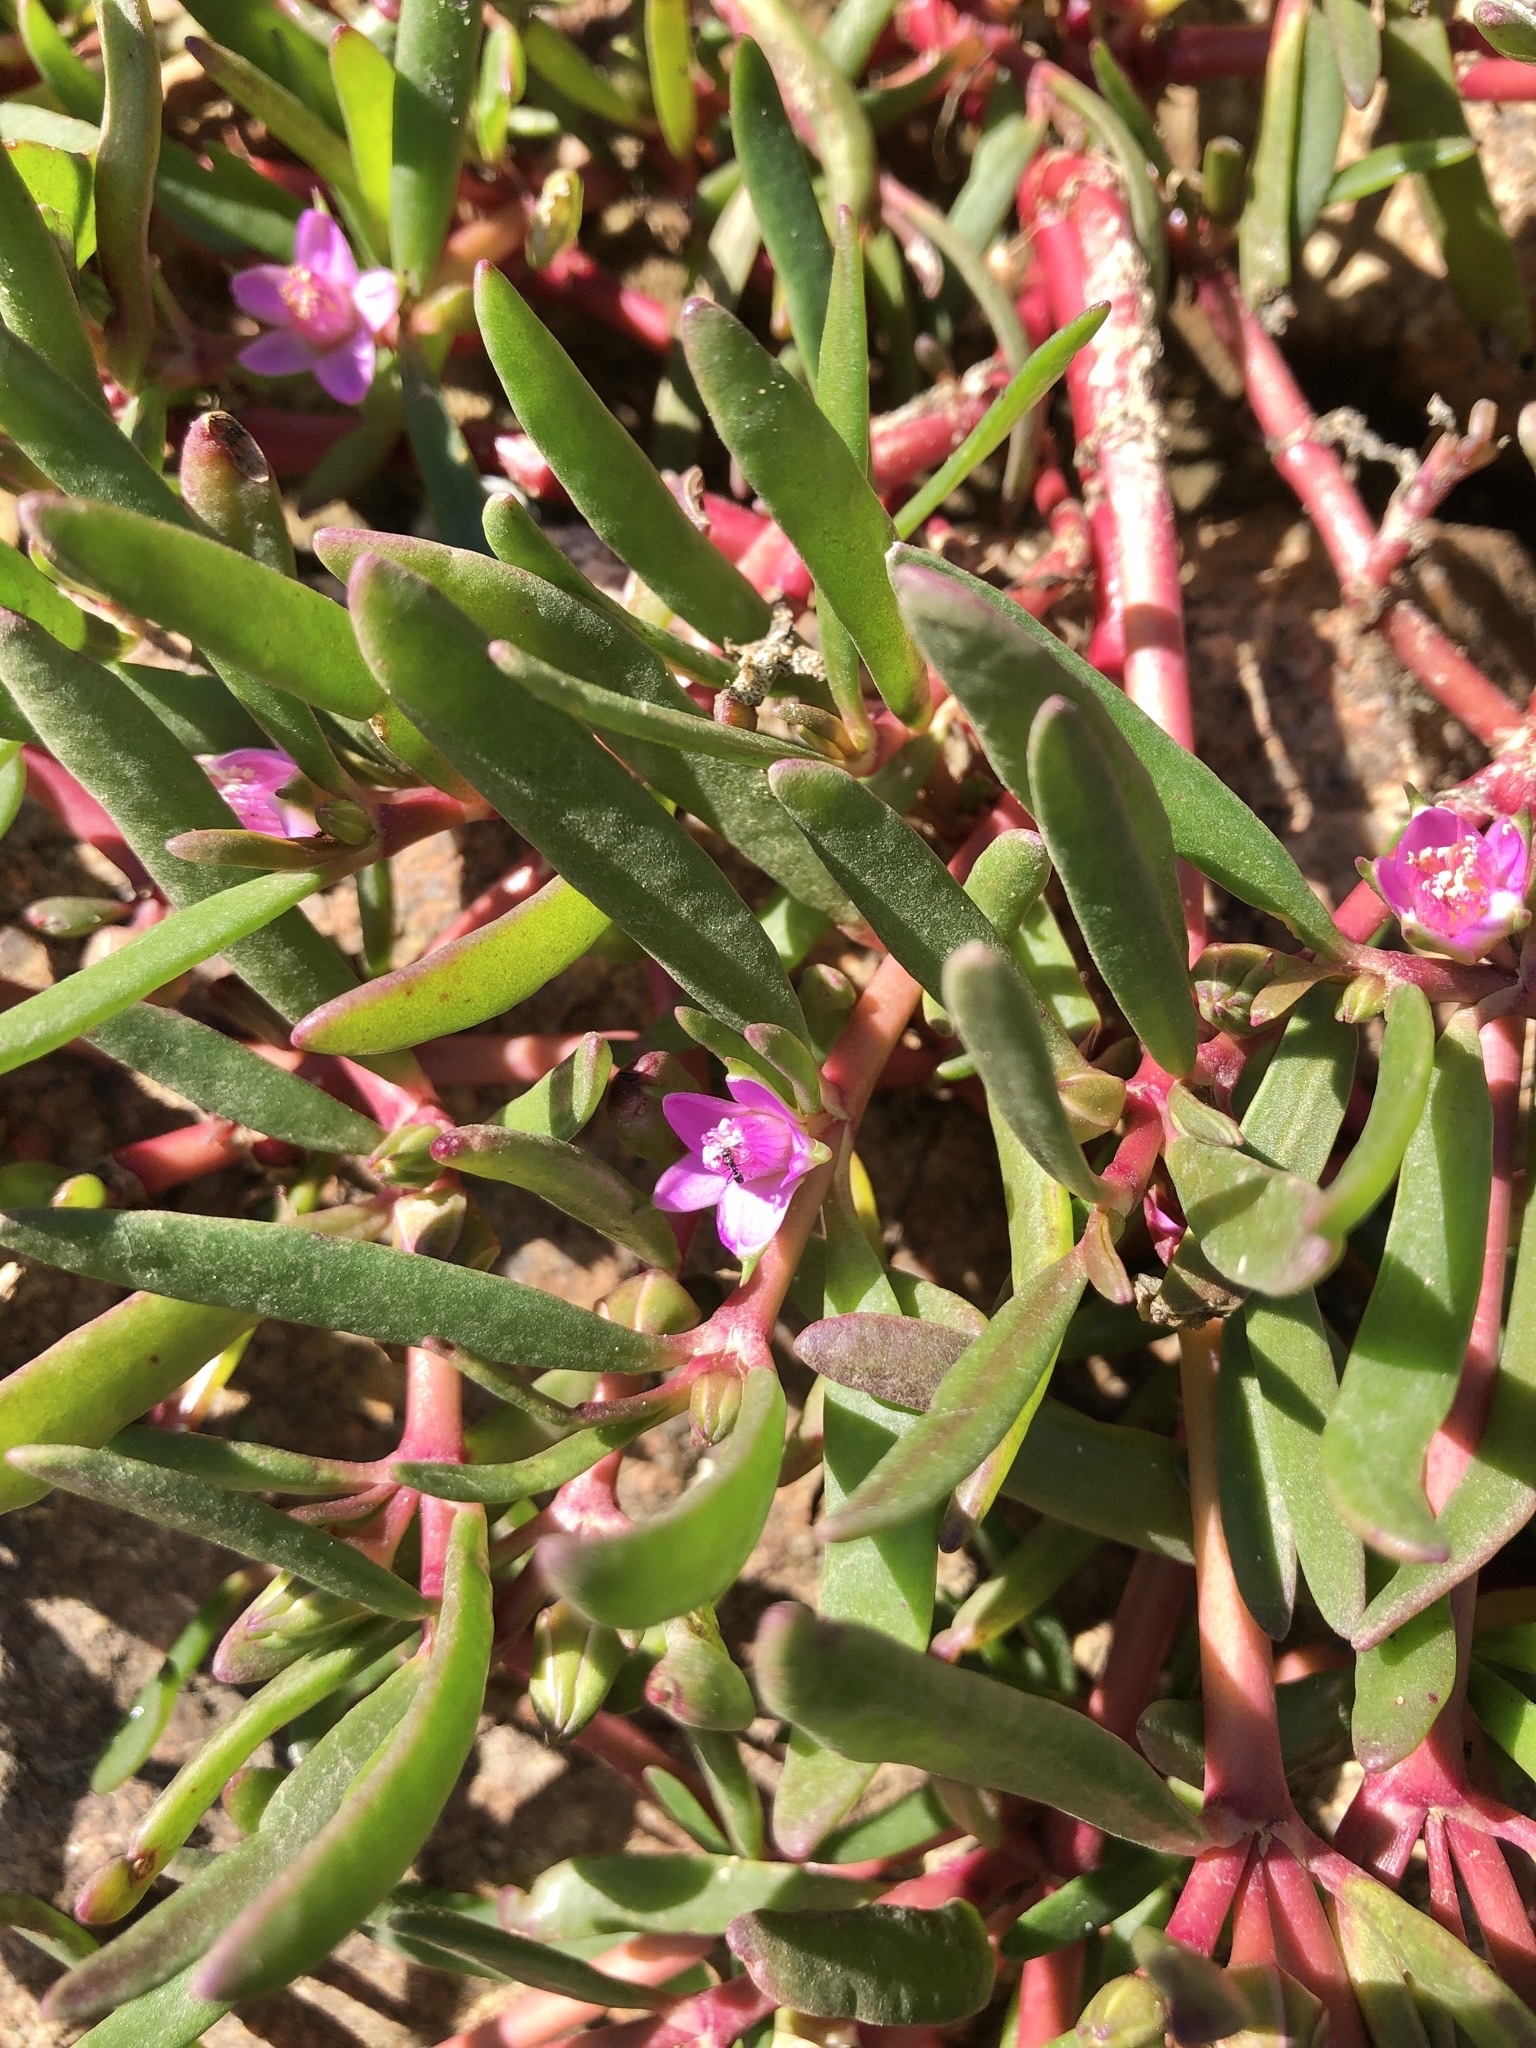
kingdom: Plantae
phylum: Tracheophyta
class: Magnoliopsida
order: Caryophyllales
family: Aizoaceae
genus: Sesuvium
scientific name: Sesuvium portulacastrum
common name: Sea-purslane
